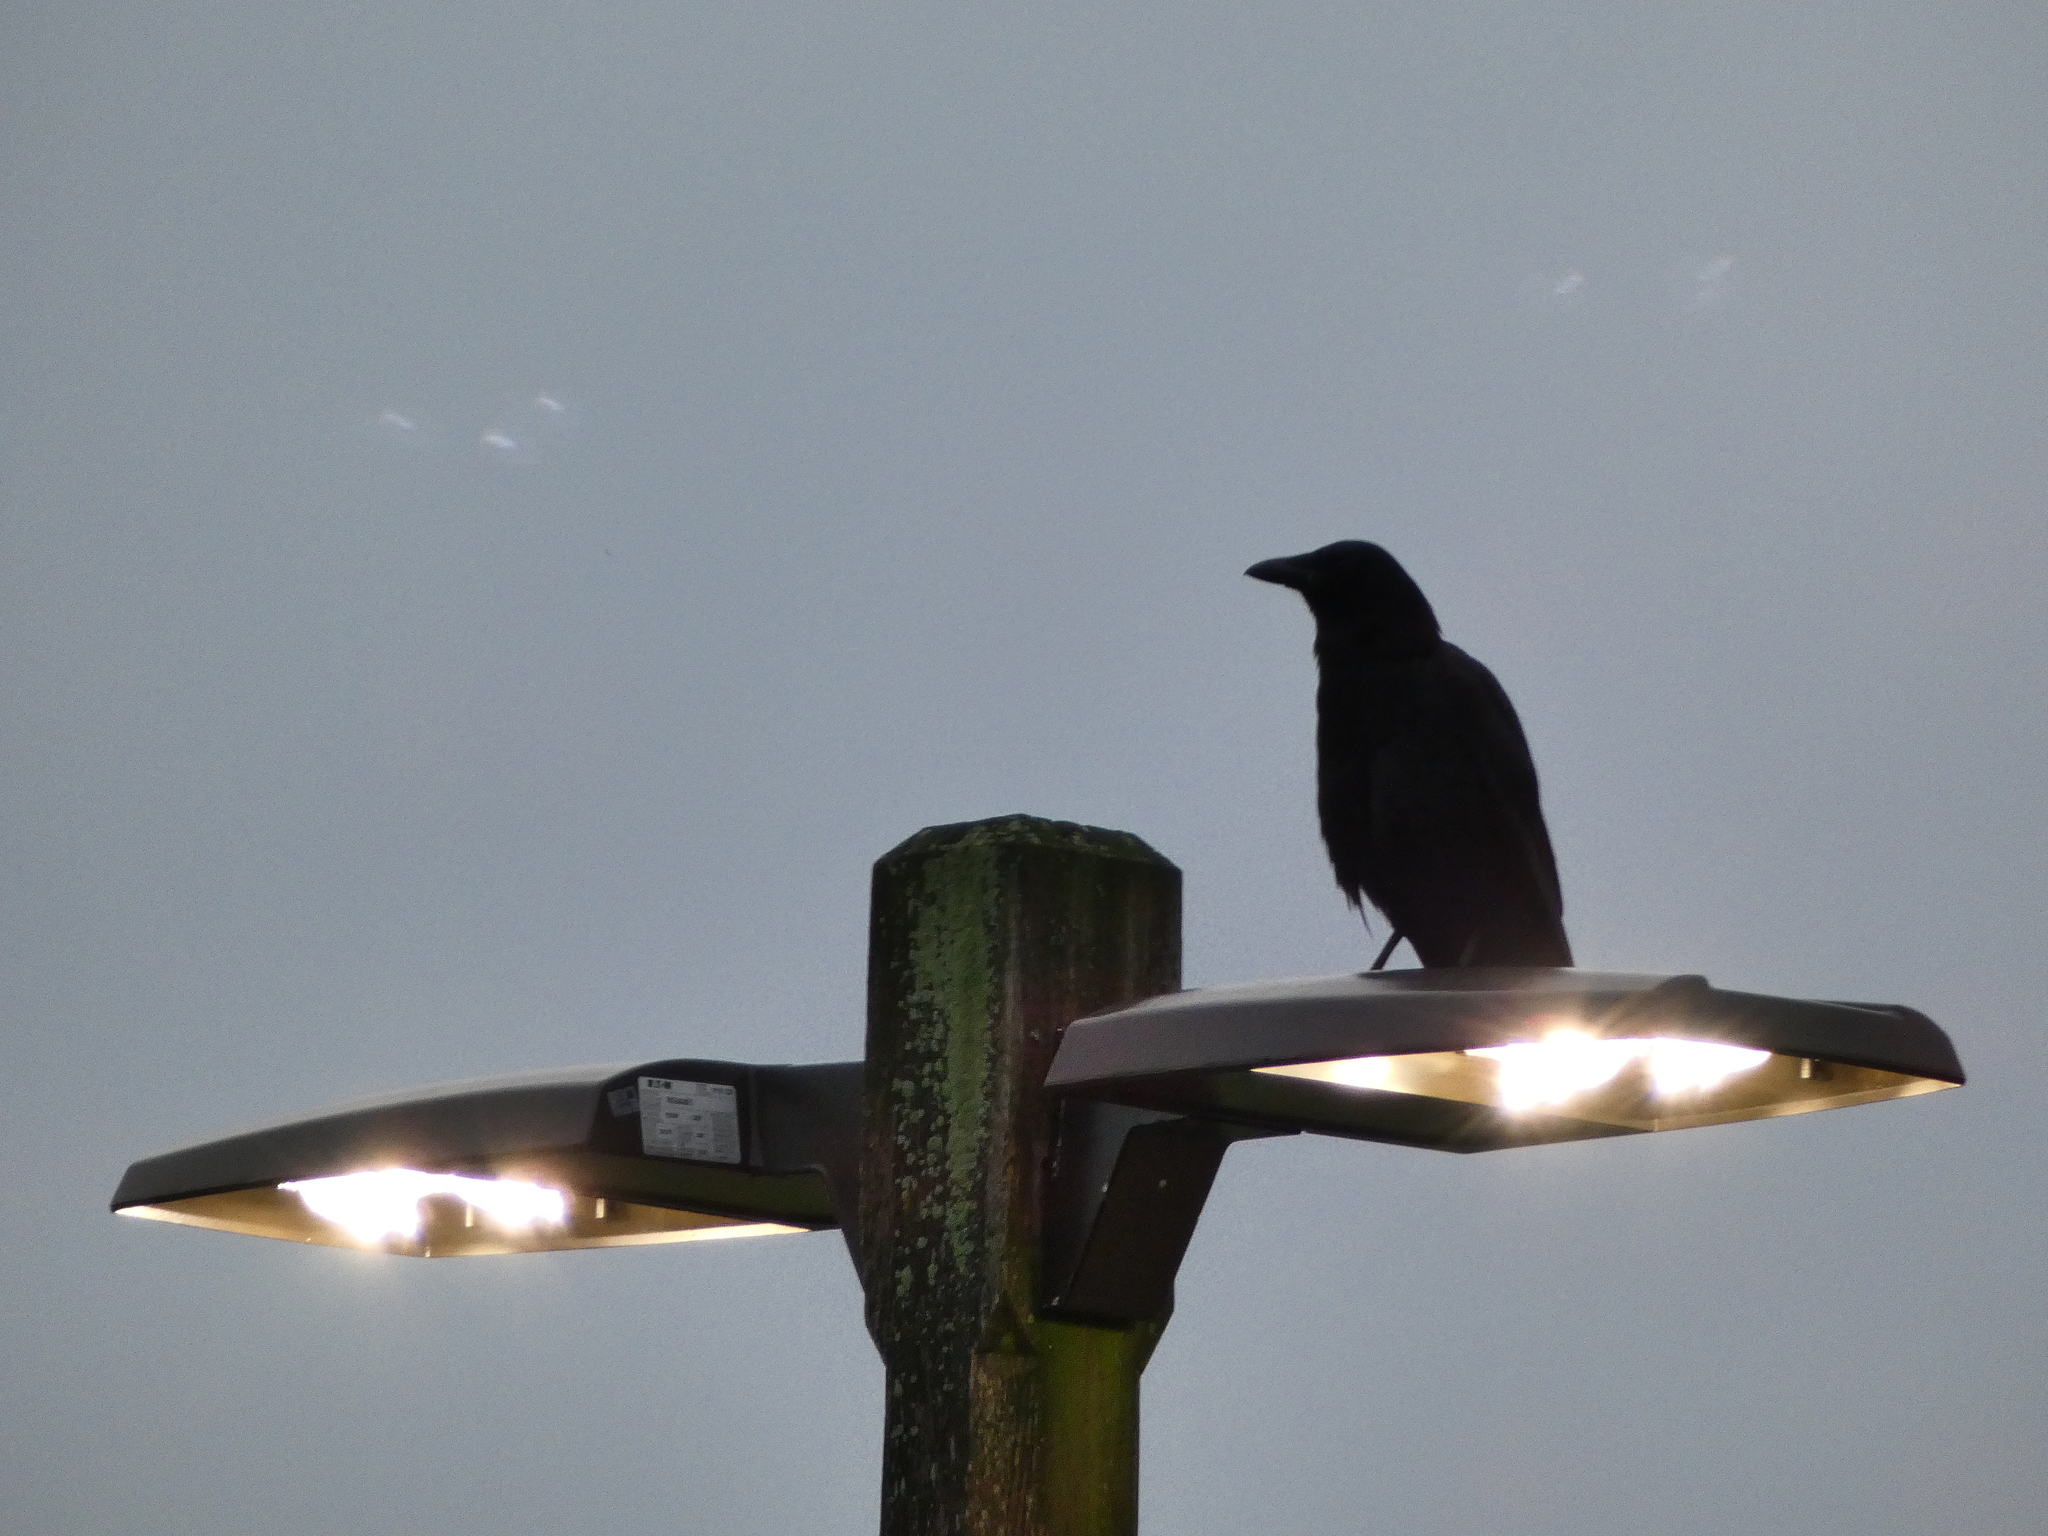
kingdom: Animalia
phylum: Chordata
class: Aves
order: Passeriformes
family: Corvidae
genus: Corvus
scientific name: Corvus brachyrhynchos
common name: American crow
